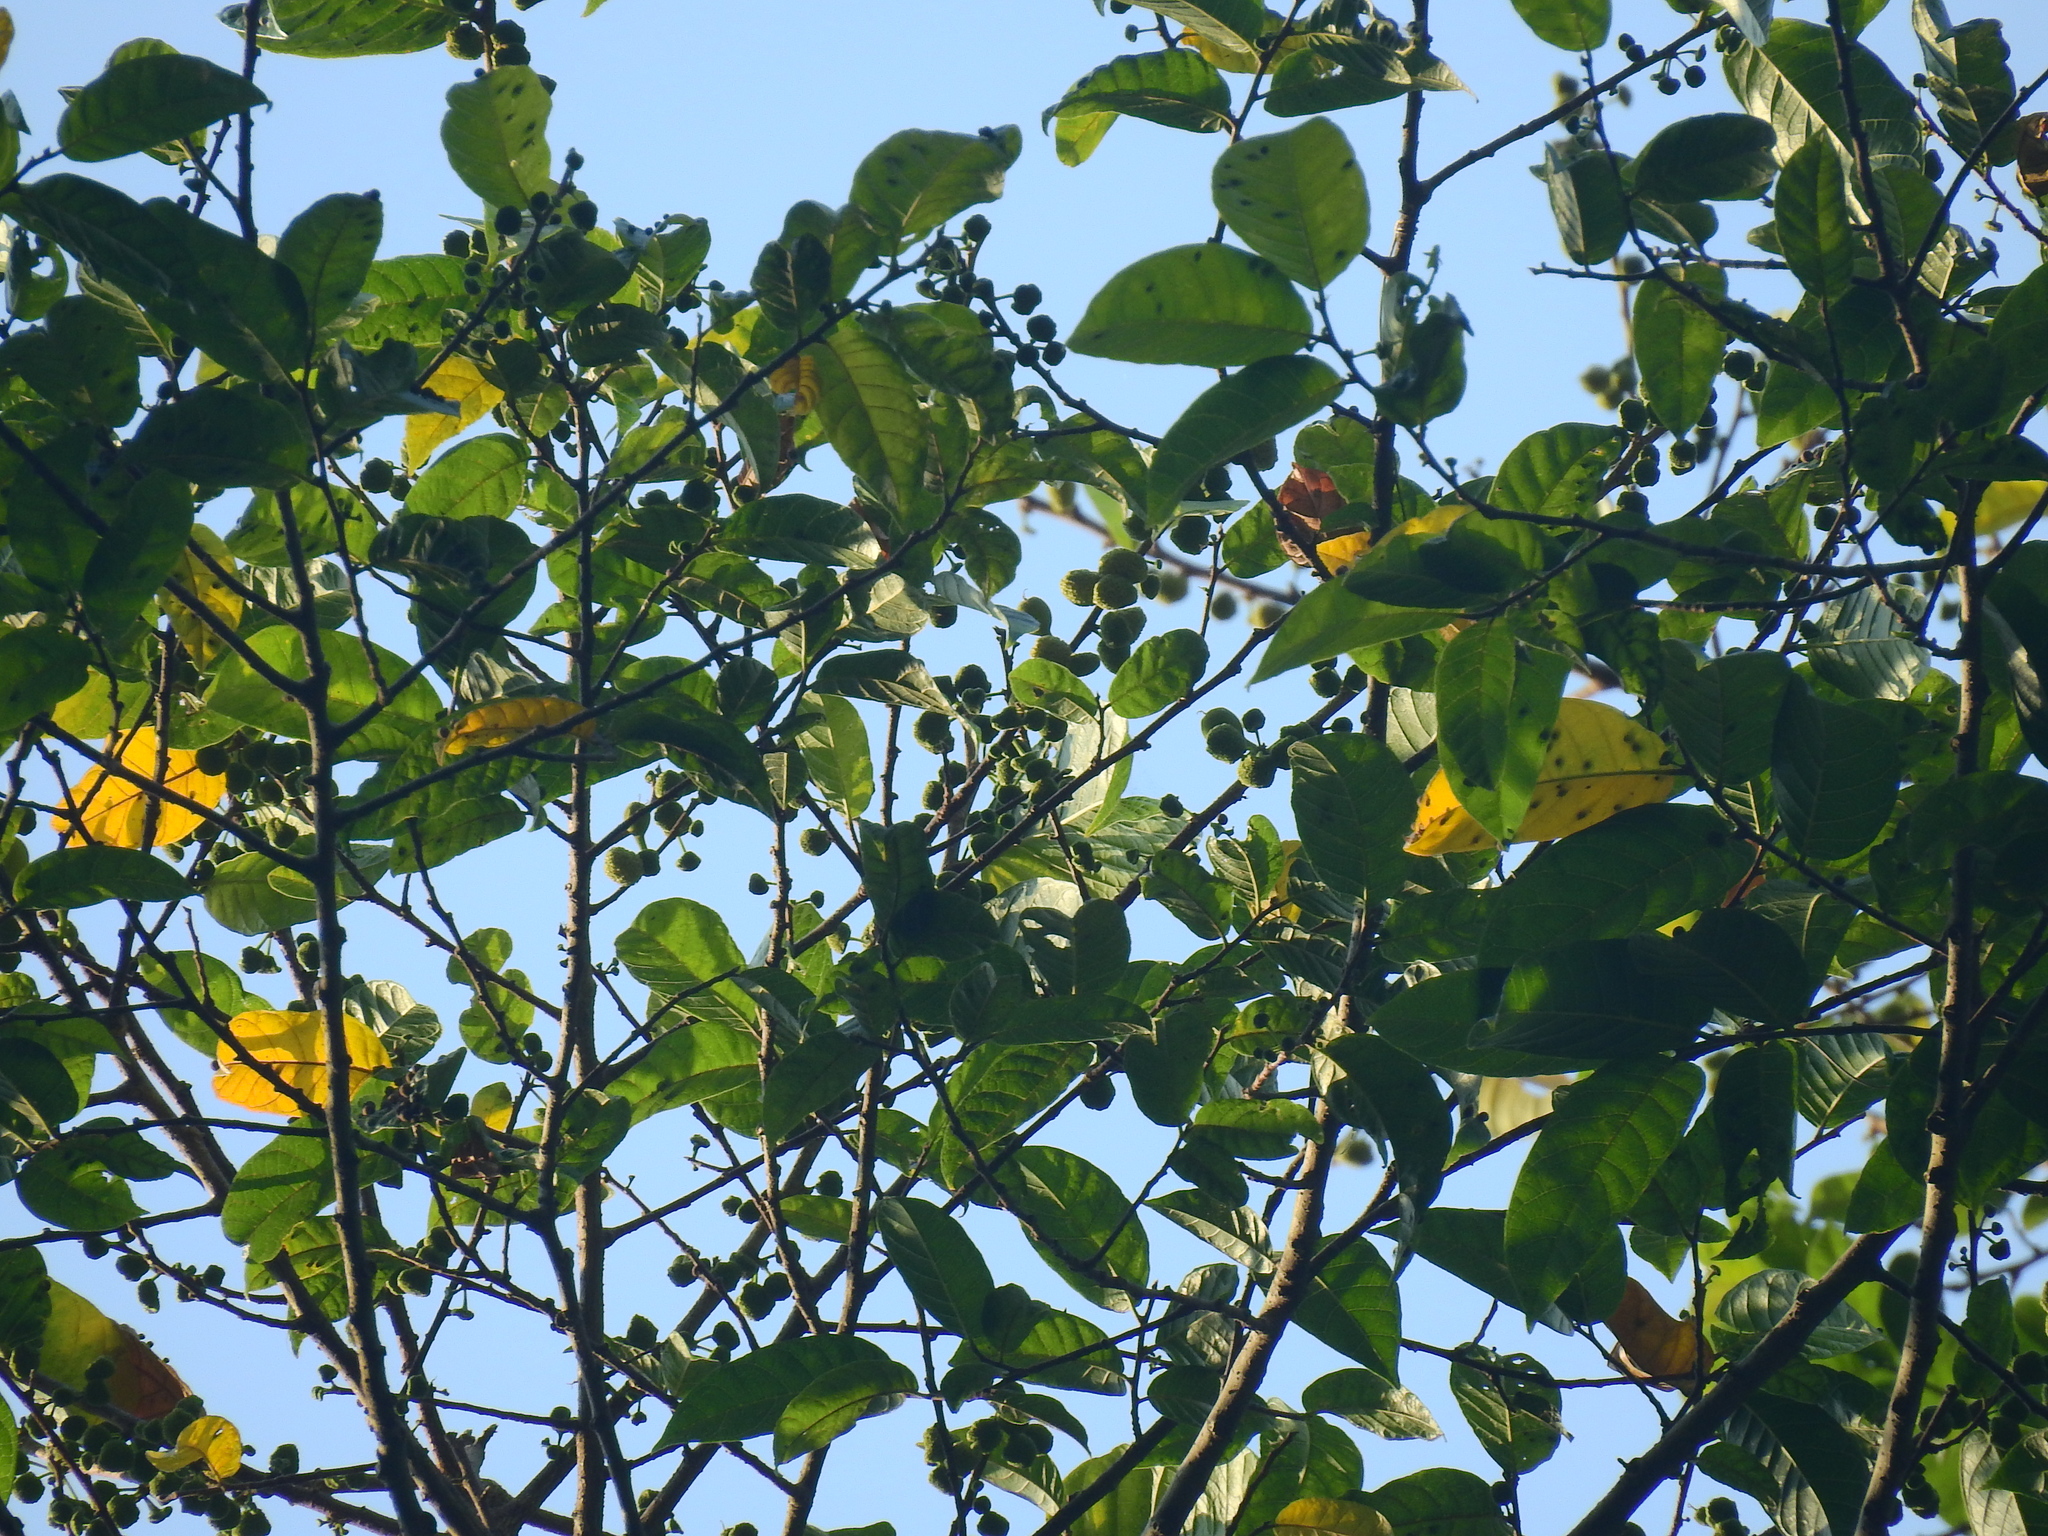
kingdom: Plantae
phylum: Tracheophyta
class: Magnoliopsida
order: Rosales
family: Moraceae
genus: Antiaris
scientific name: Antiaris toxicaria
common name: Sackingtree
